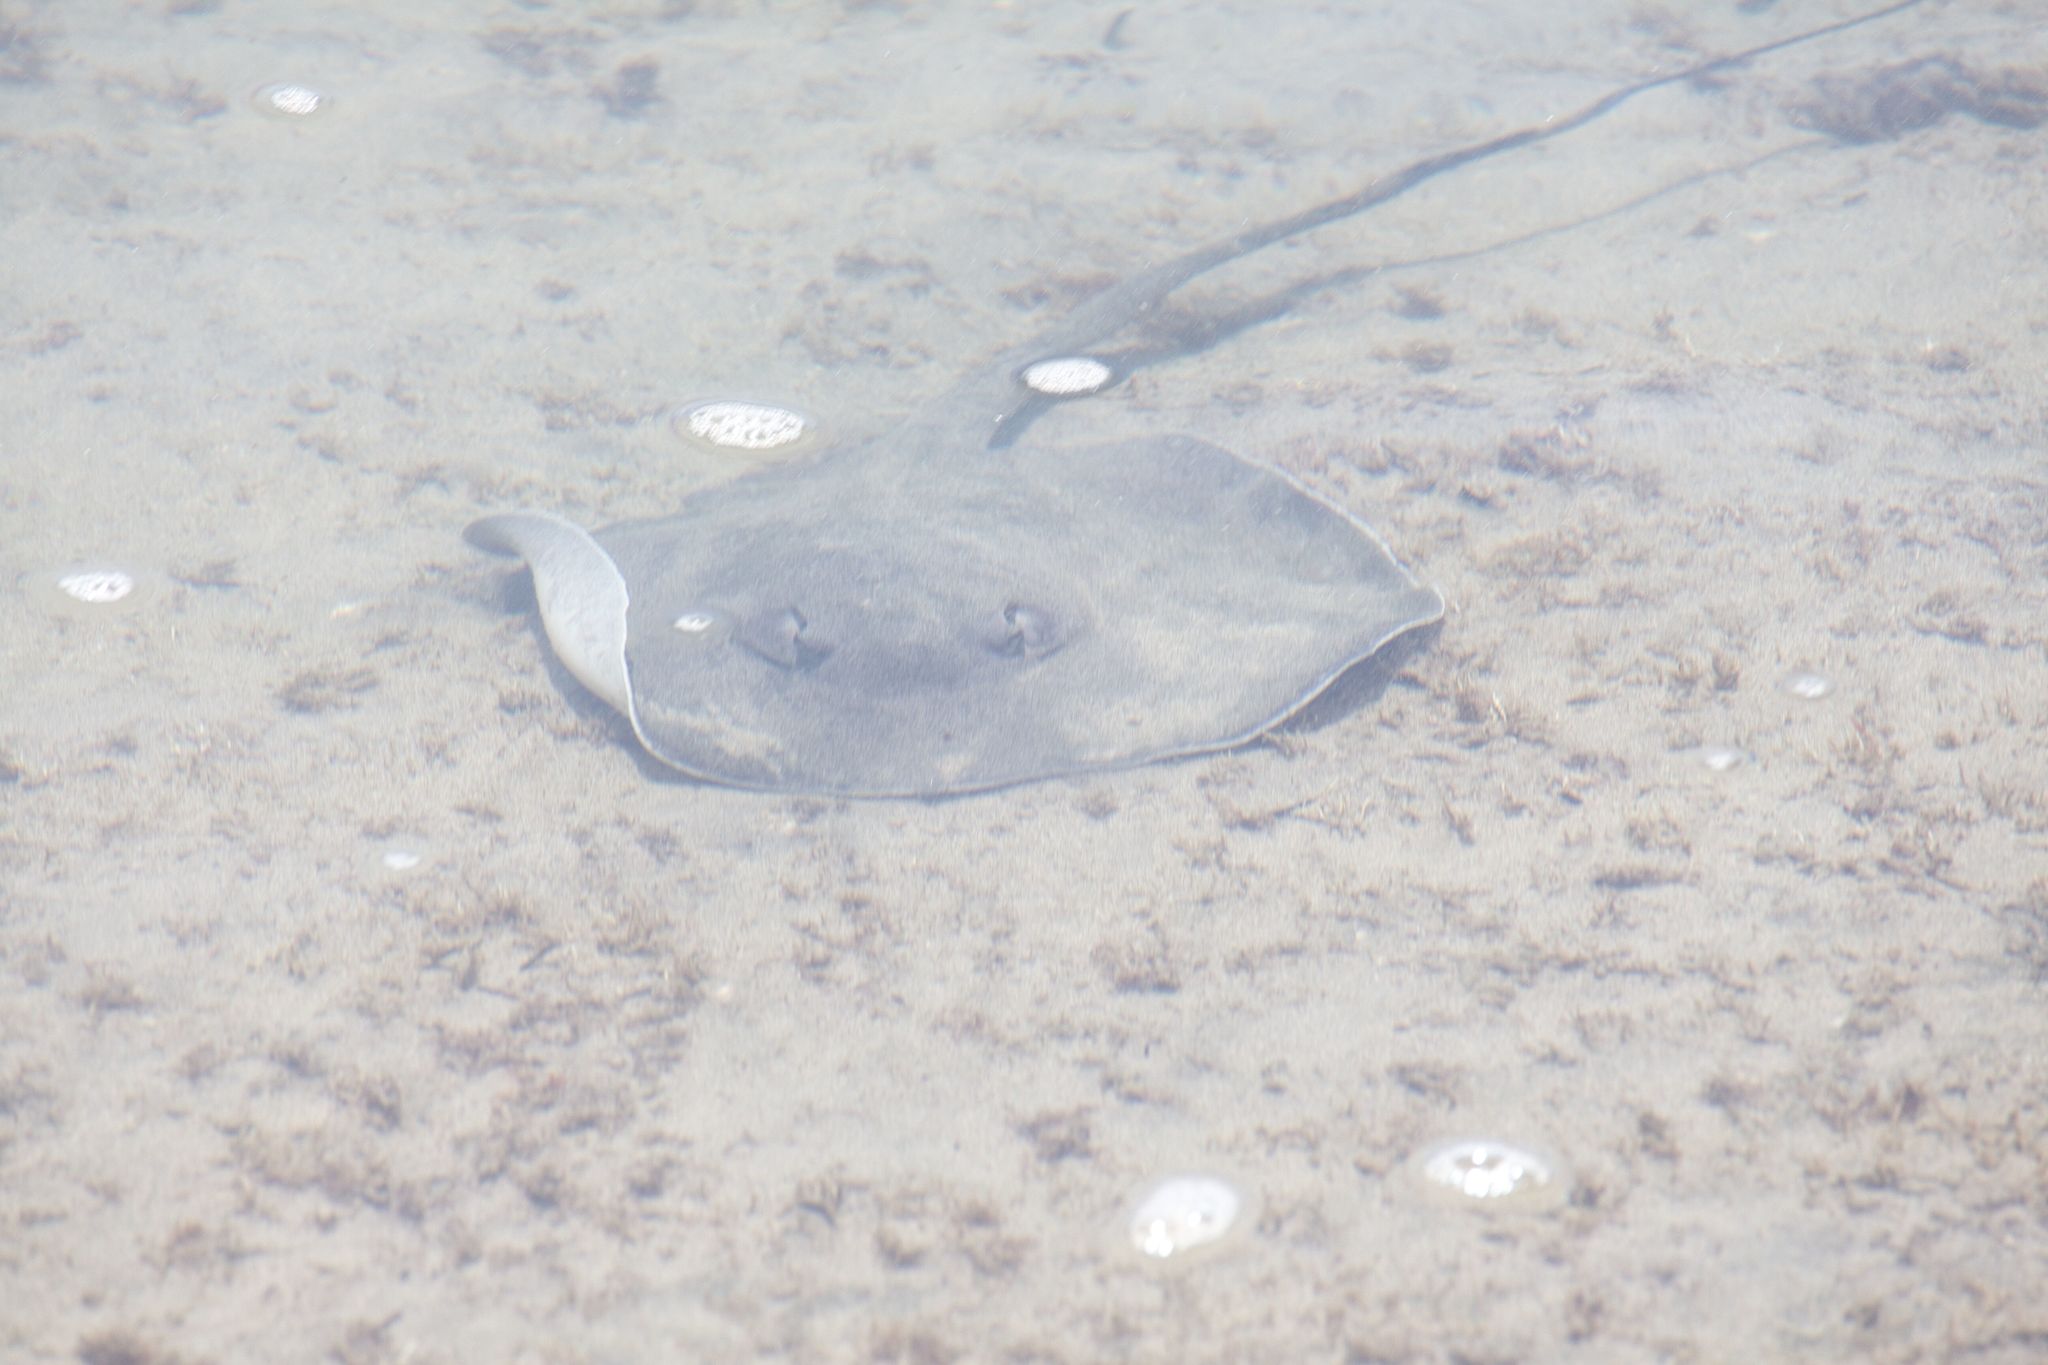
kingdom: Animalia
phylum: Chordata
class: Elasmobranchii
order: Myliobatiformes
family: Potamotrygonidae
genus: Styracura
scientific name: Styracura pacifica
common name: Pacific chupare
